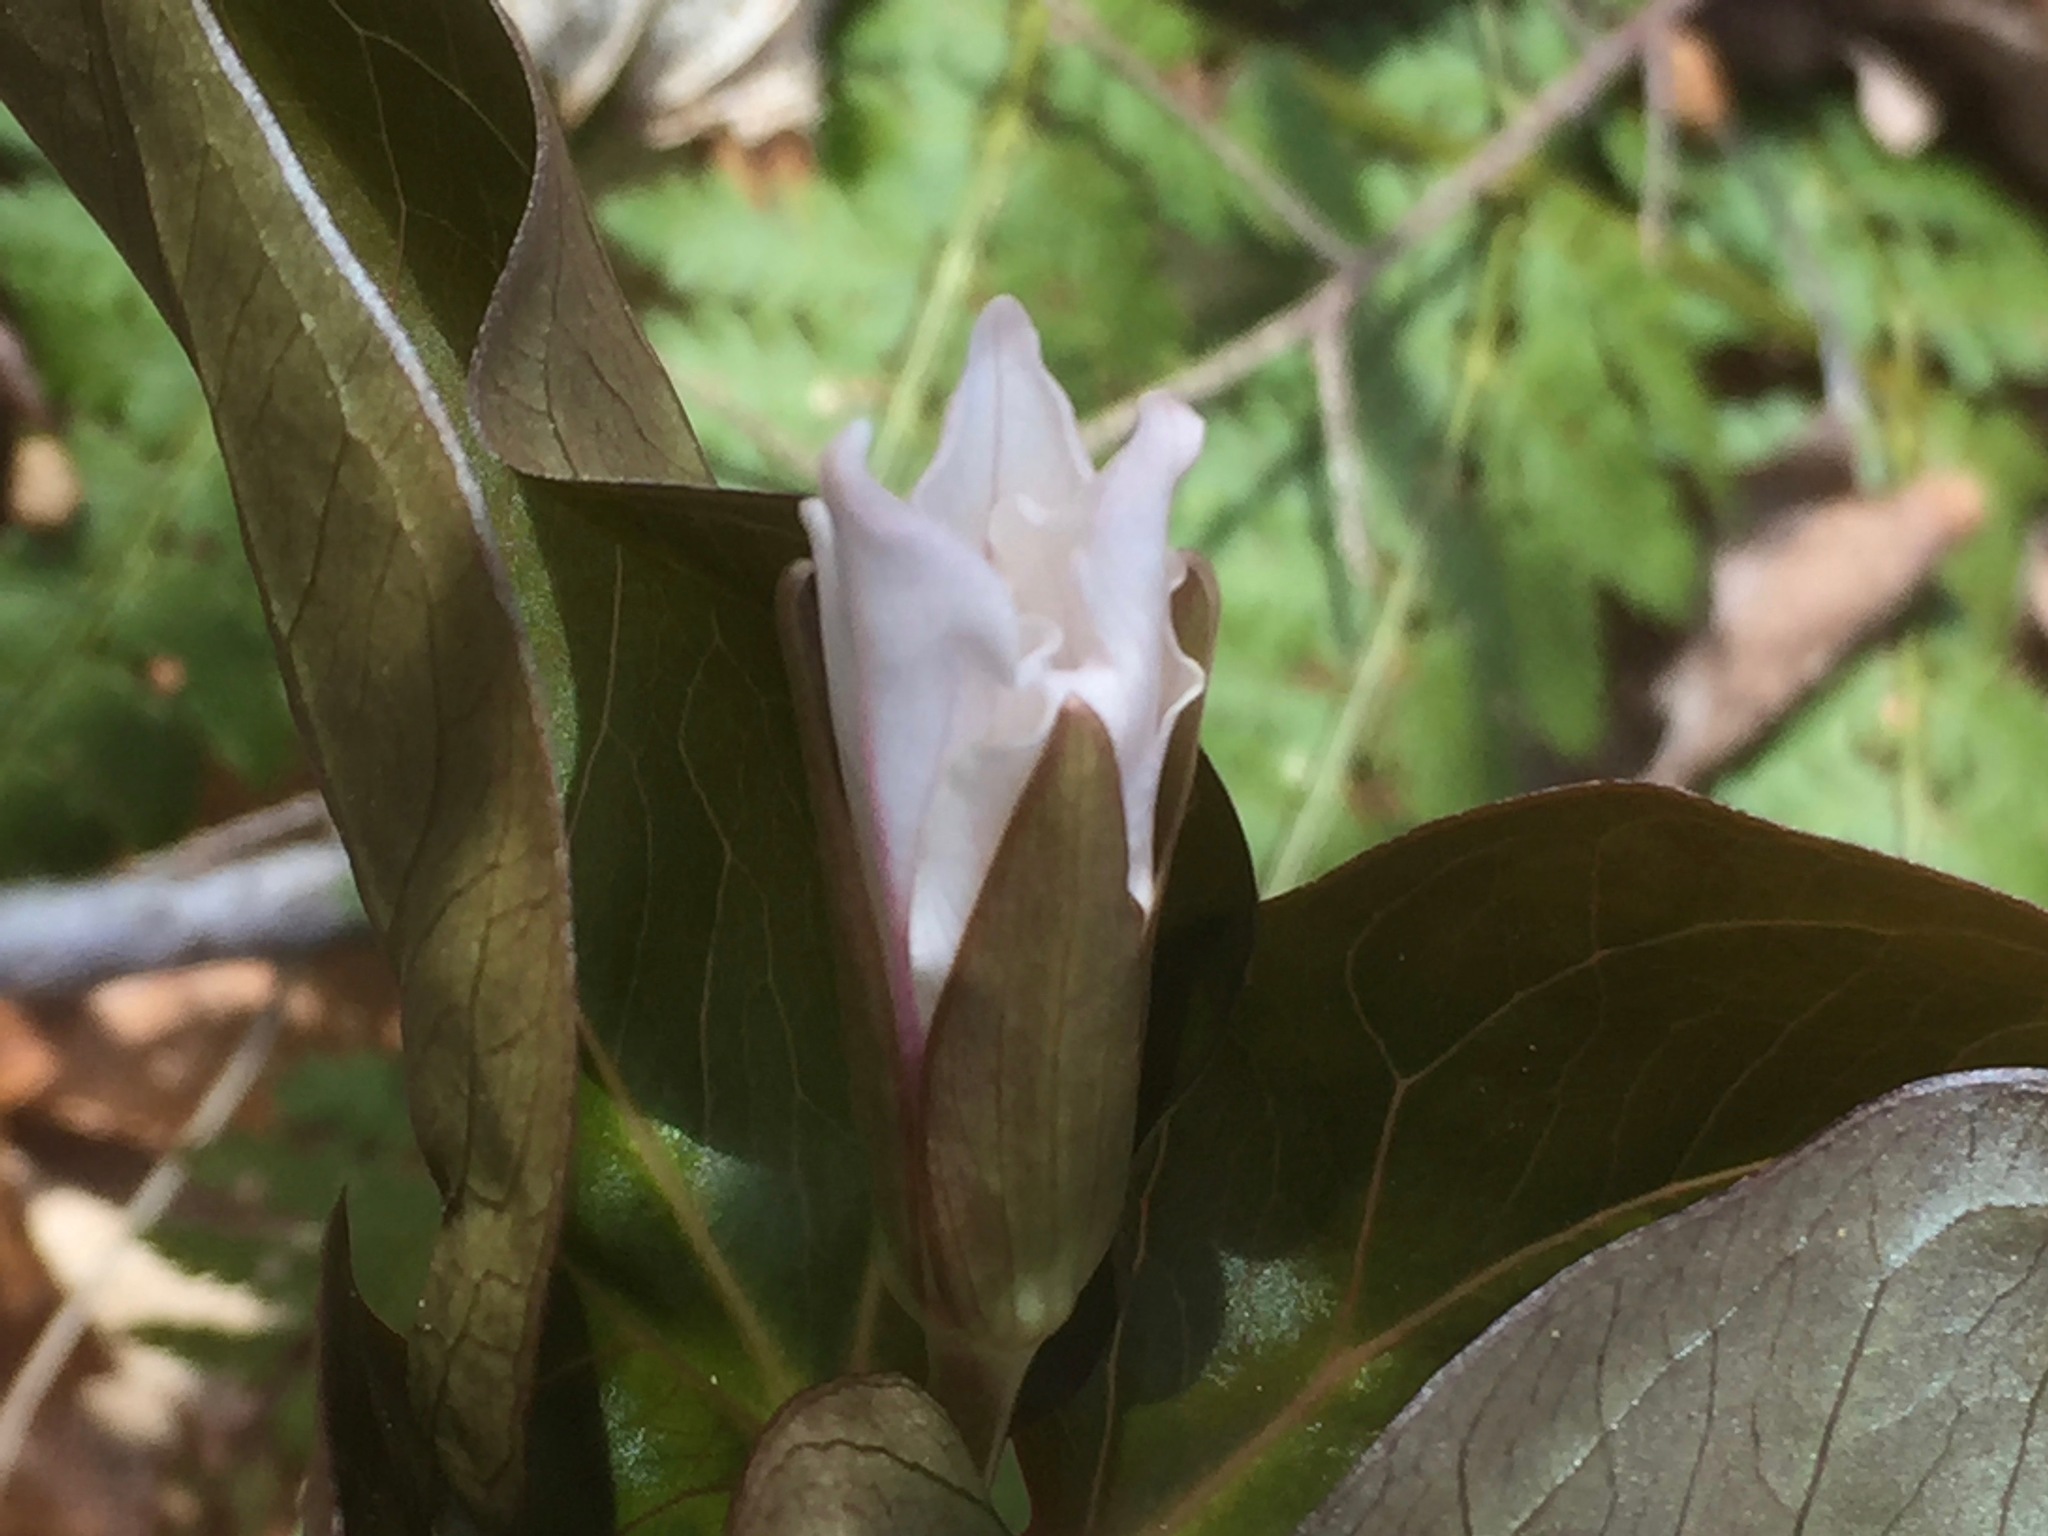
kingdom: Plantae
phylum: Tracheophyta
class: Liliopsida
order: Liliales
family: Melanthiaceae
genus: Trillium
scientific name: Trillium undulatum
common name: Paint trillium
